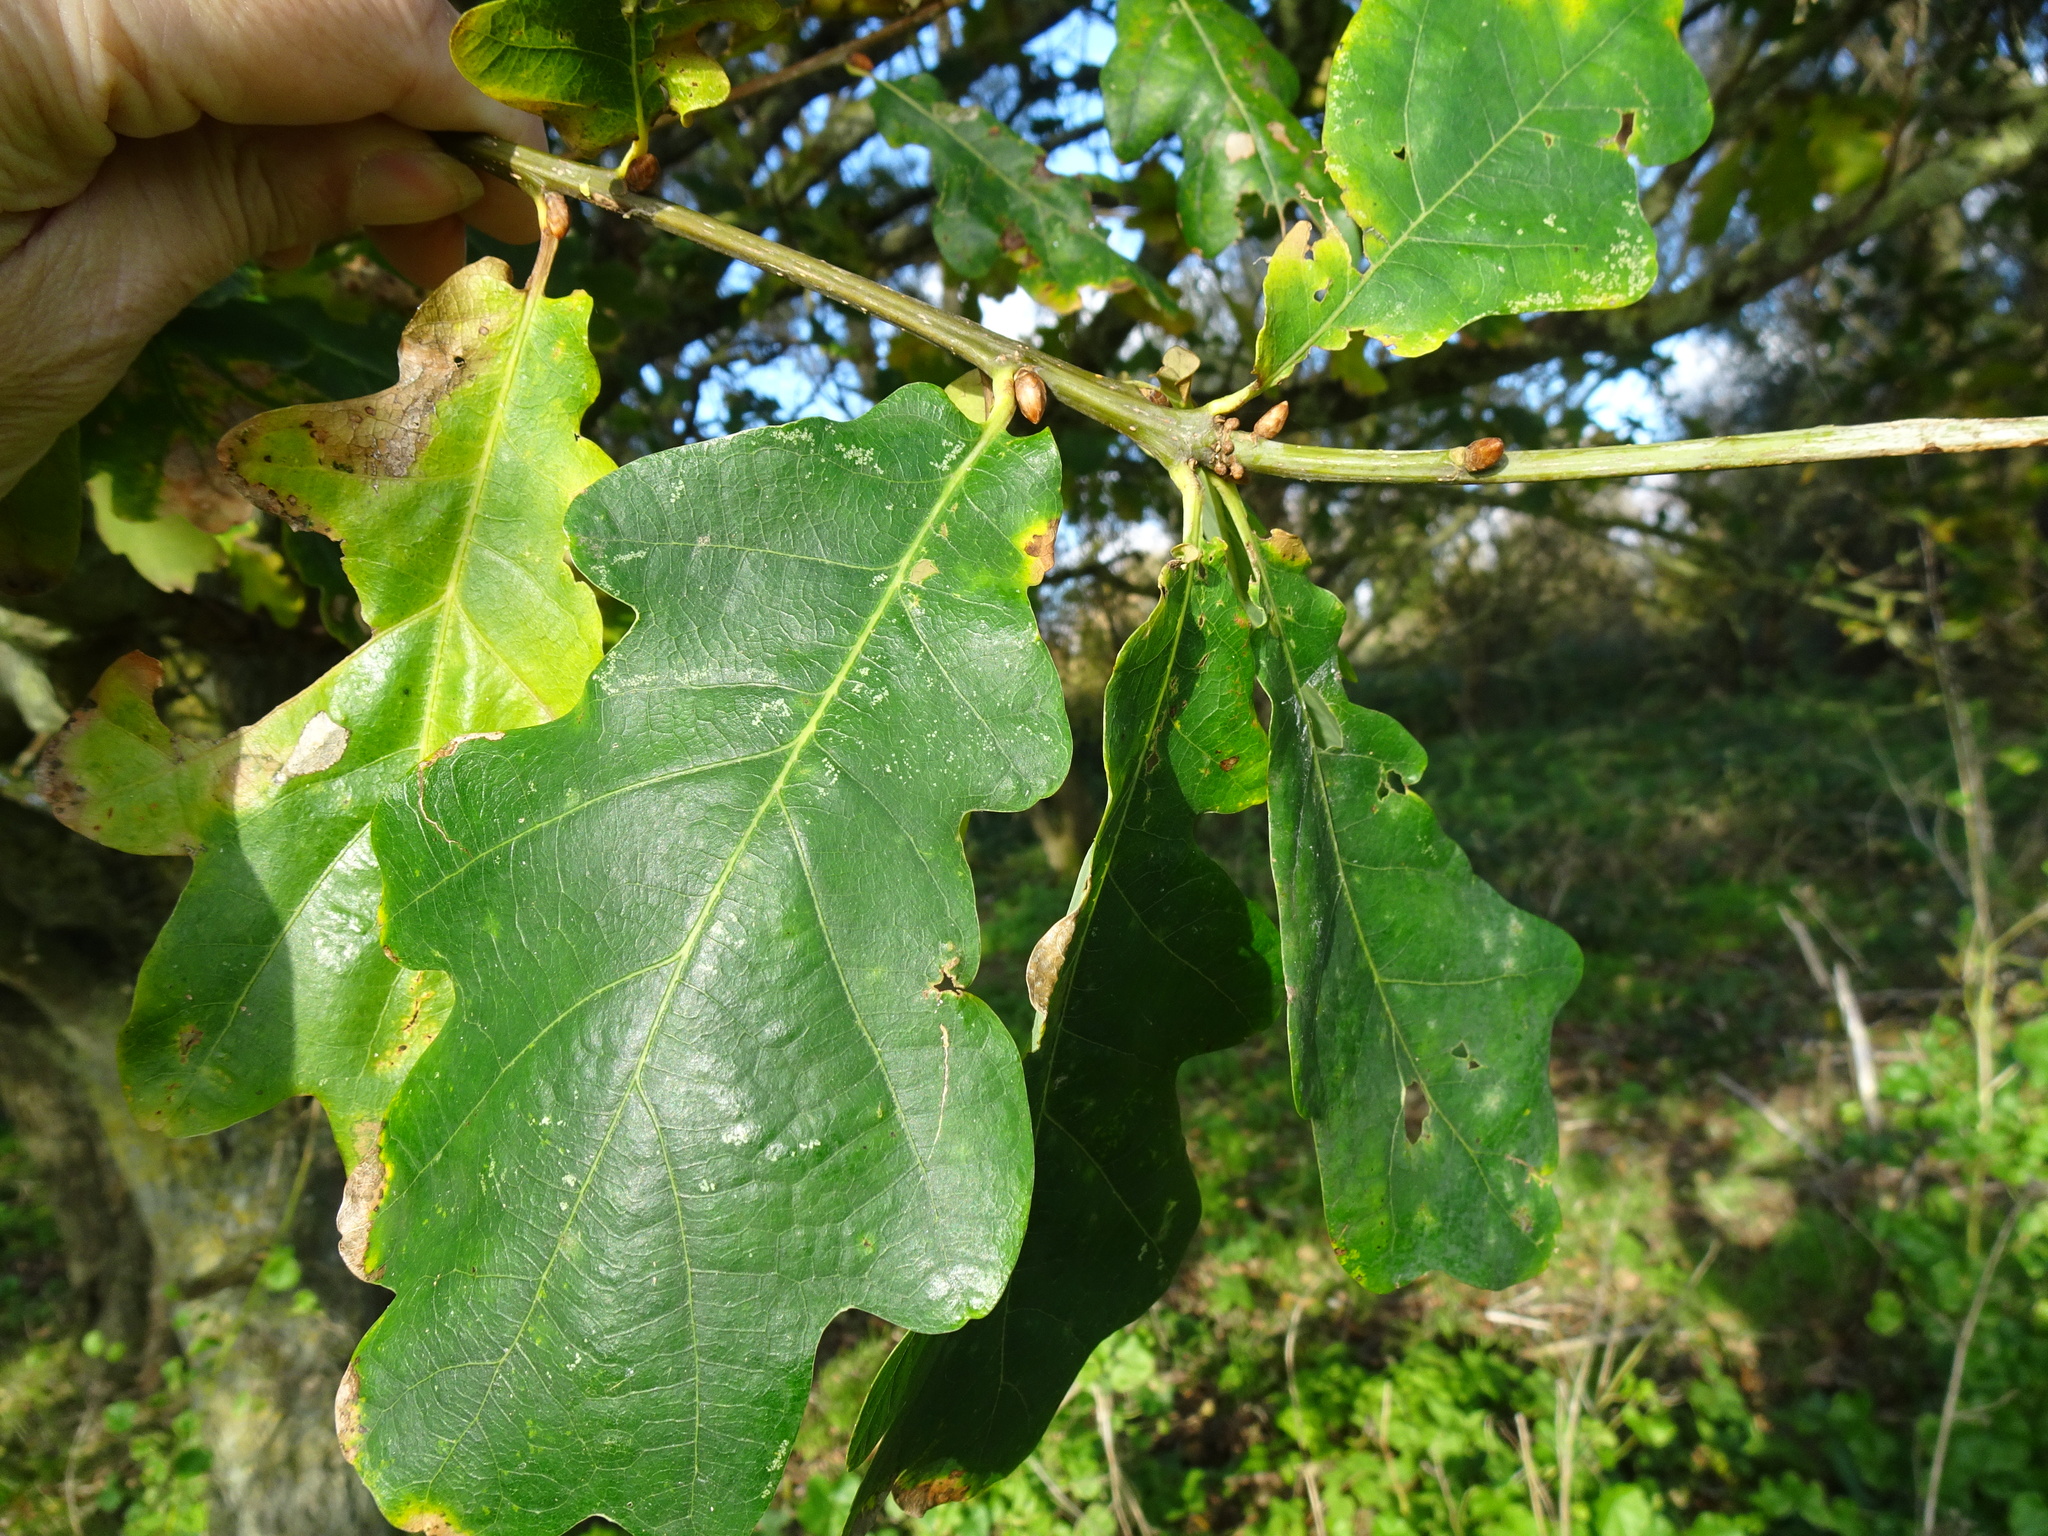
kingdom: Plantae
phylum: Tracheophyta
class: Magnoliopsida
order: Fagales
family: Fagaceae
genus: Quercus
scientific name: Quercus robur
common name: Pedunculate oak
